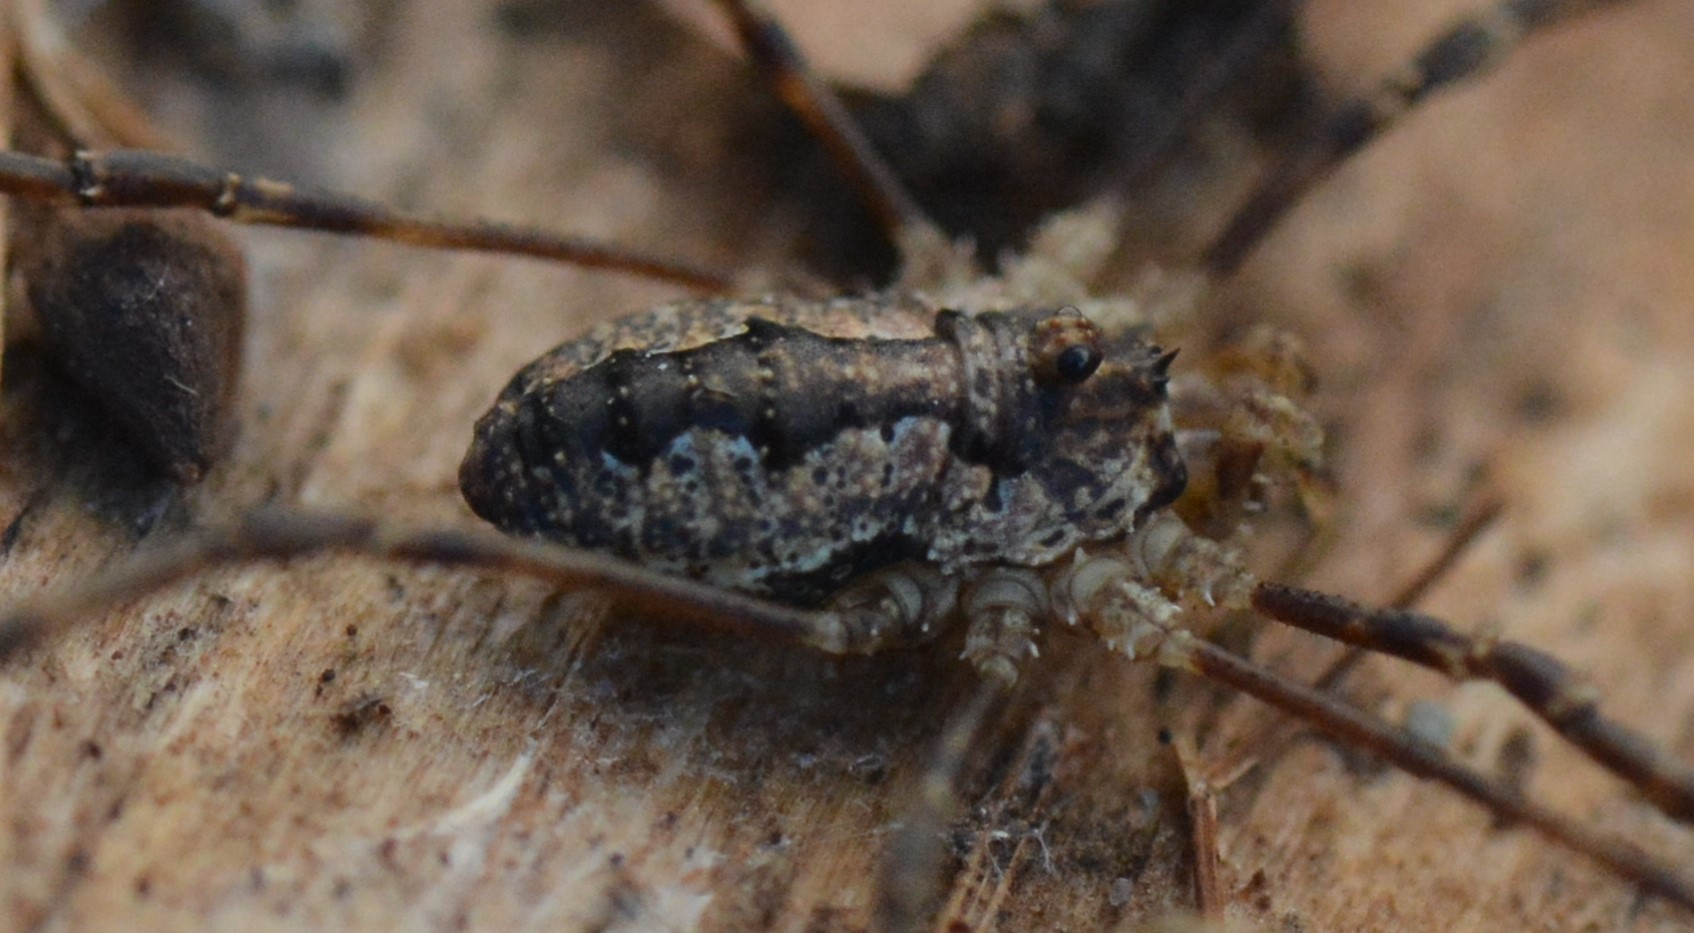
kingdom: Animalia
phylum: Arthropoda
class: Arachnida
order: Opiliones
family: Phalangiidae
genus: Odiellus
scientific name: Odiellus pictus
